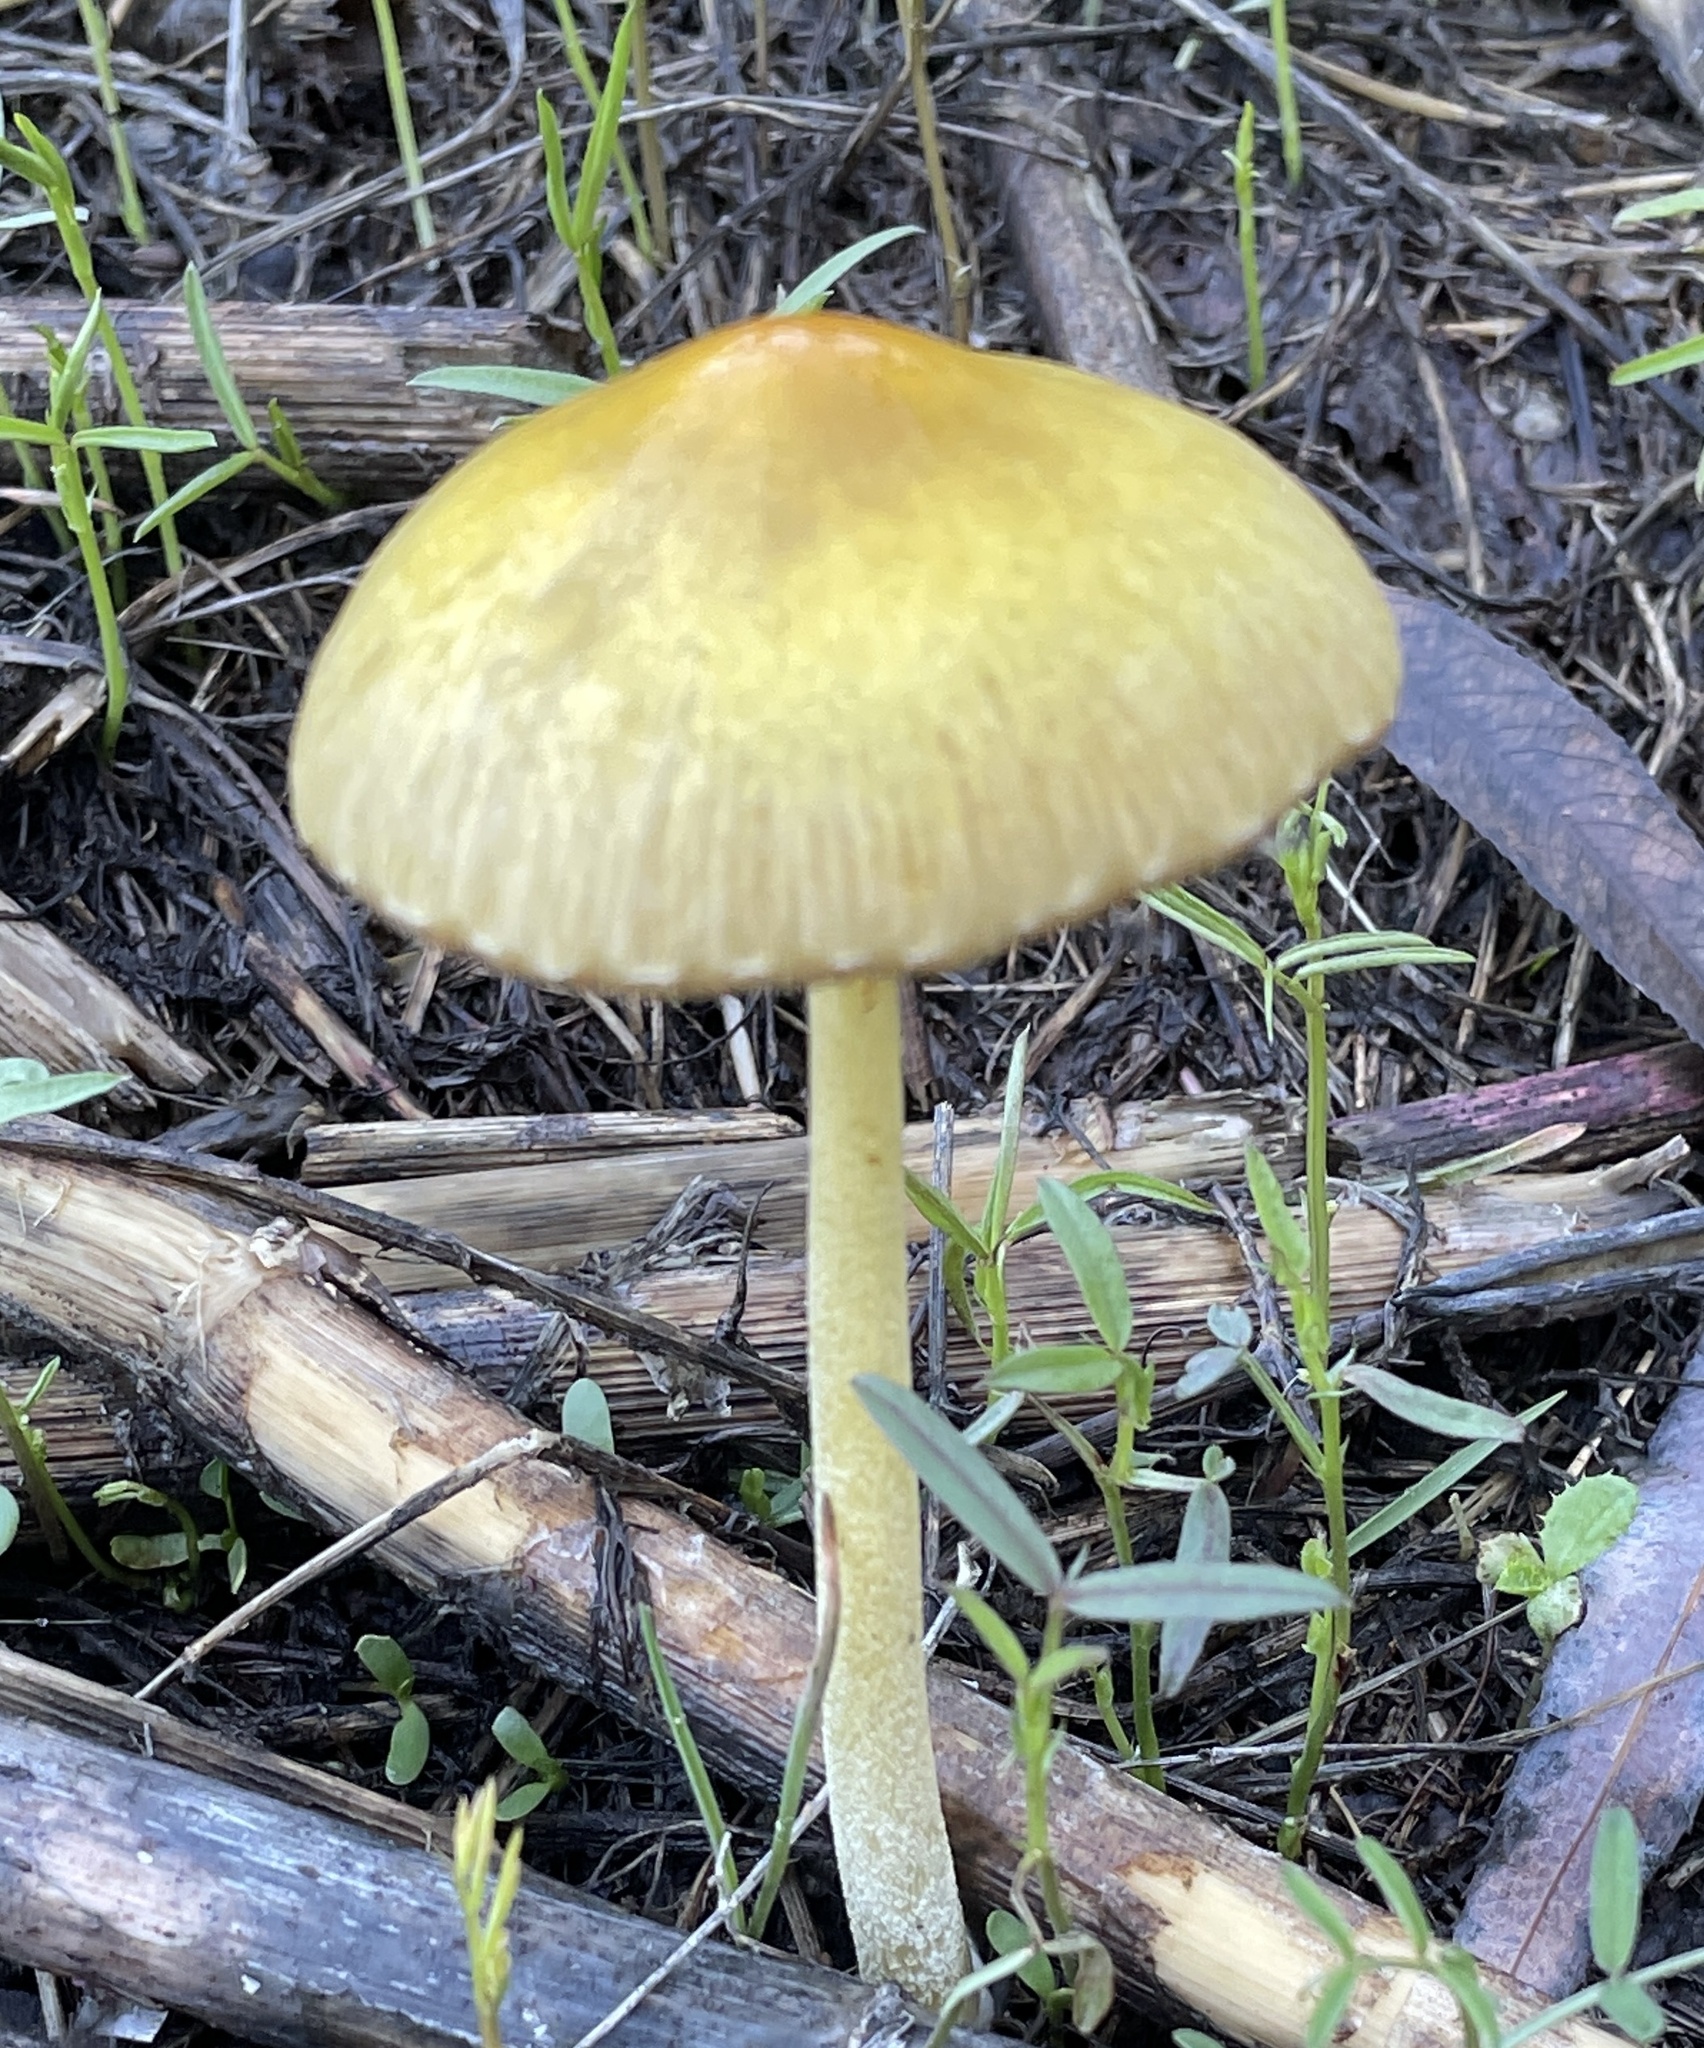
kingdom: Fungi
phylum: Basidiomycota
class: Agaricomycetes
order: Agaricales
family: Bolbitiaceae
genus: Bolbitius
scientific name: Bolbitius titubans
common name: Yellow fieldcap
